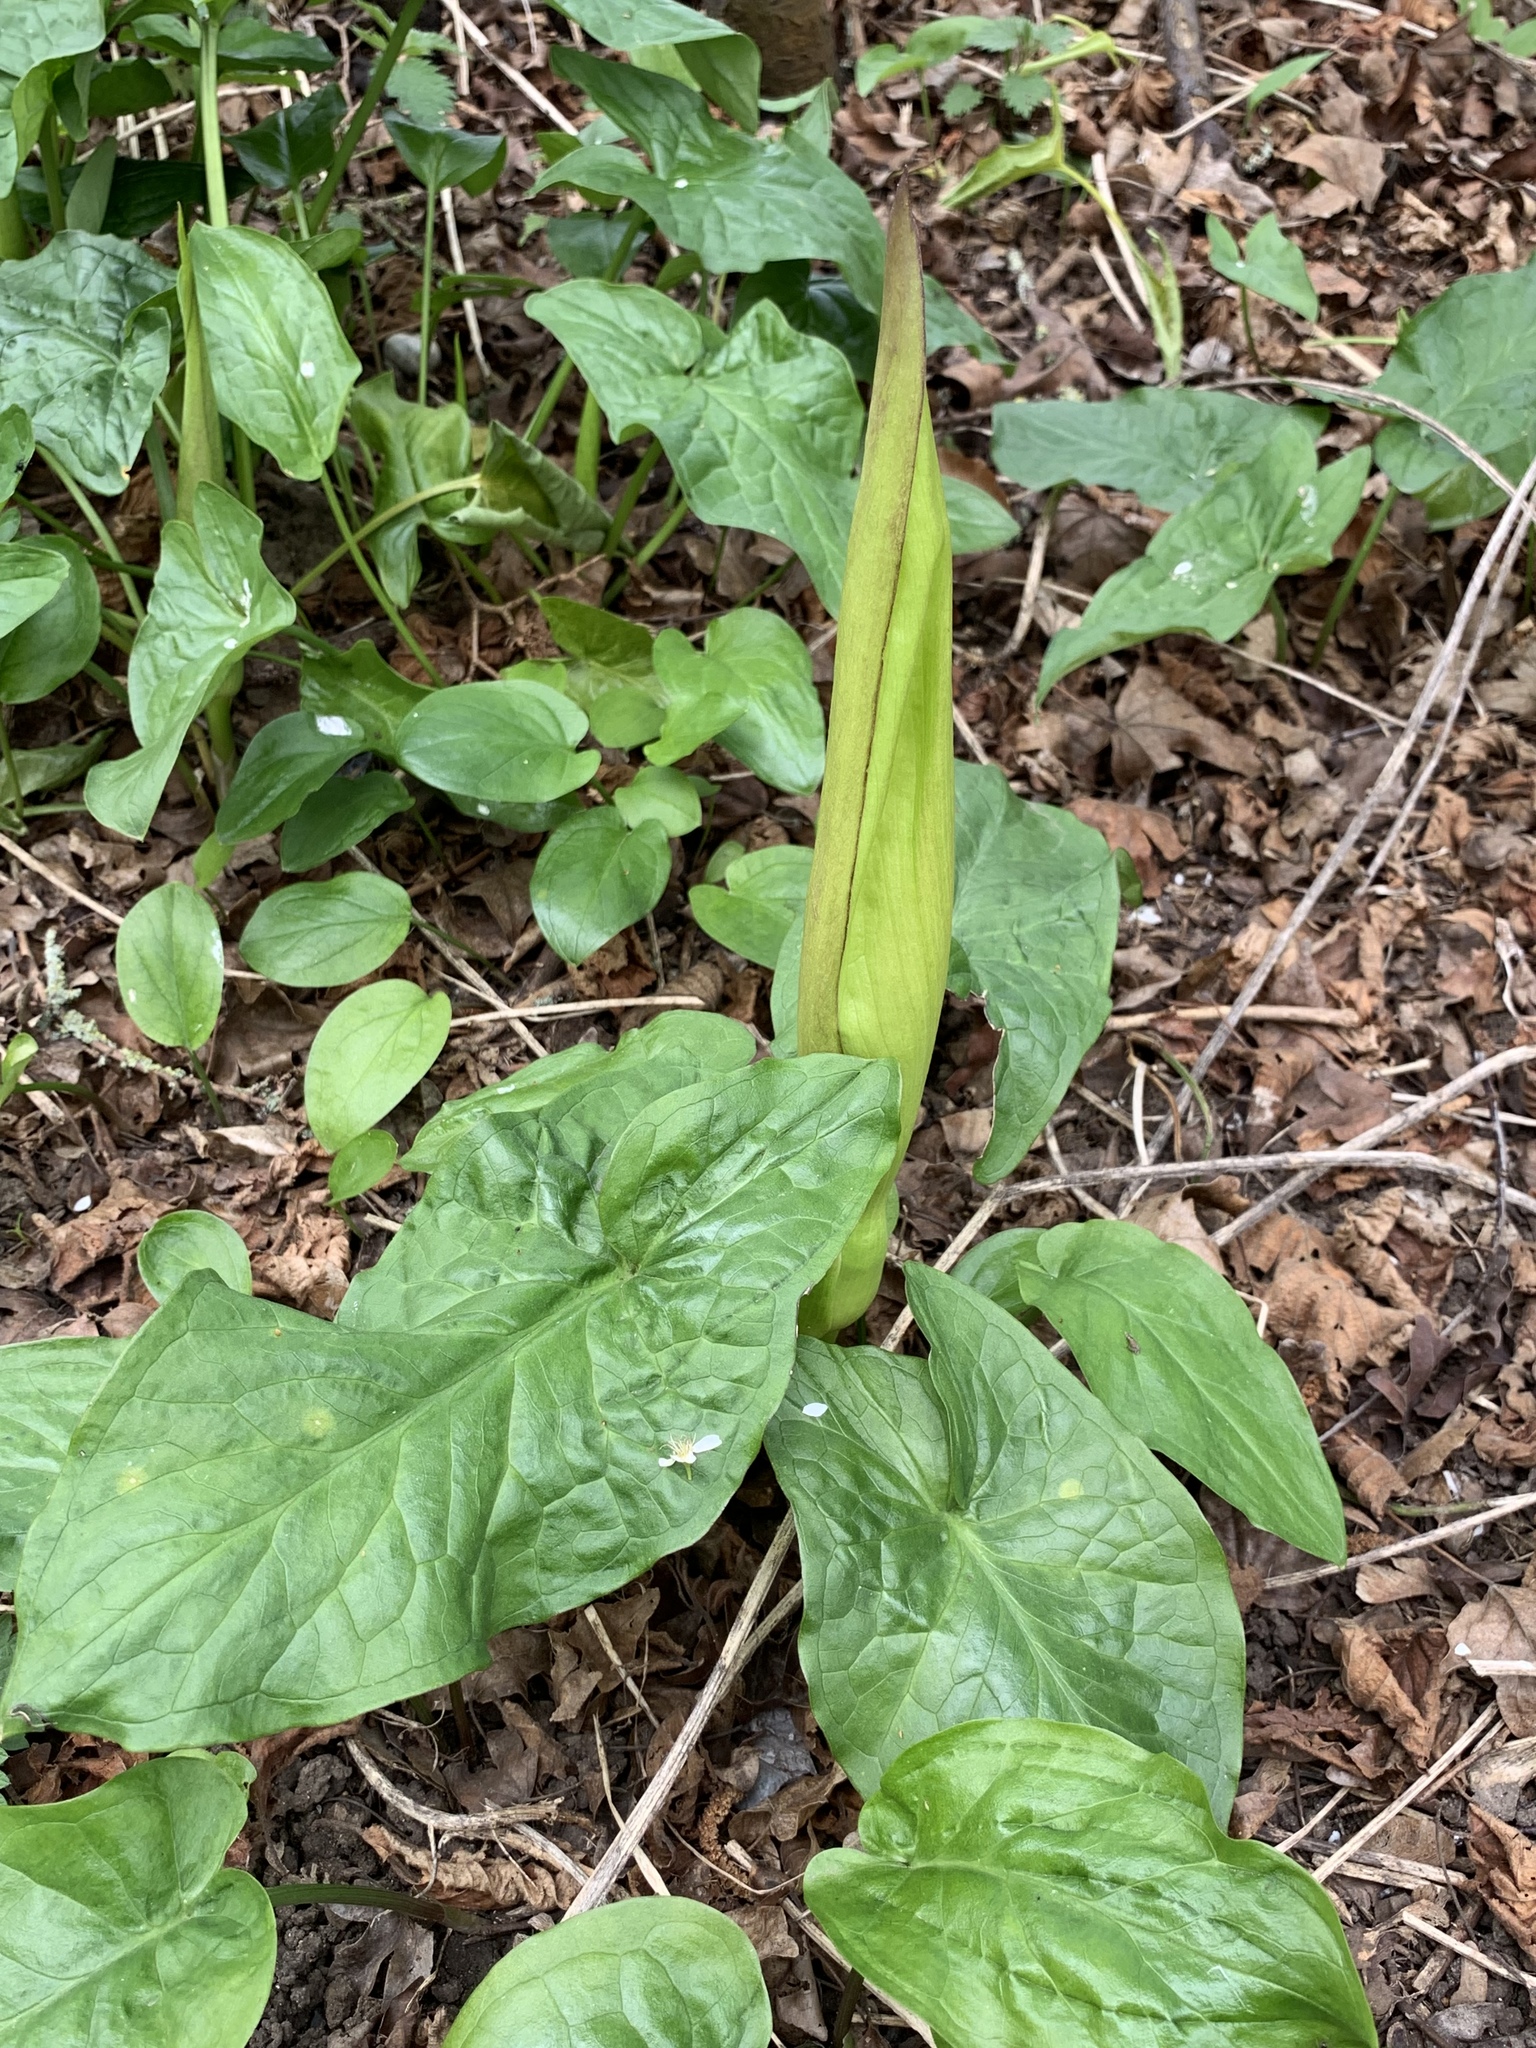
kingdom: Plantae
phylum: Tracheophyta
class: Liliopsida
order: Alismatales
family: Araceae
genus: Arum
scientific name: Arum maculatum
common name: Lords-and-ladies
